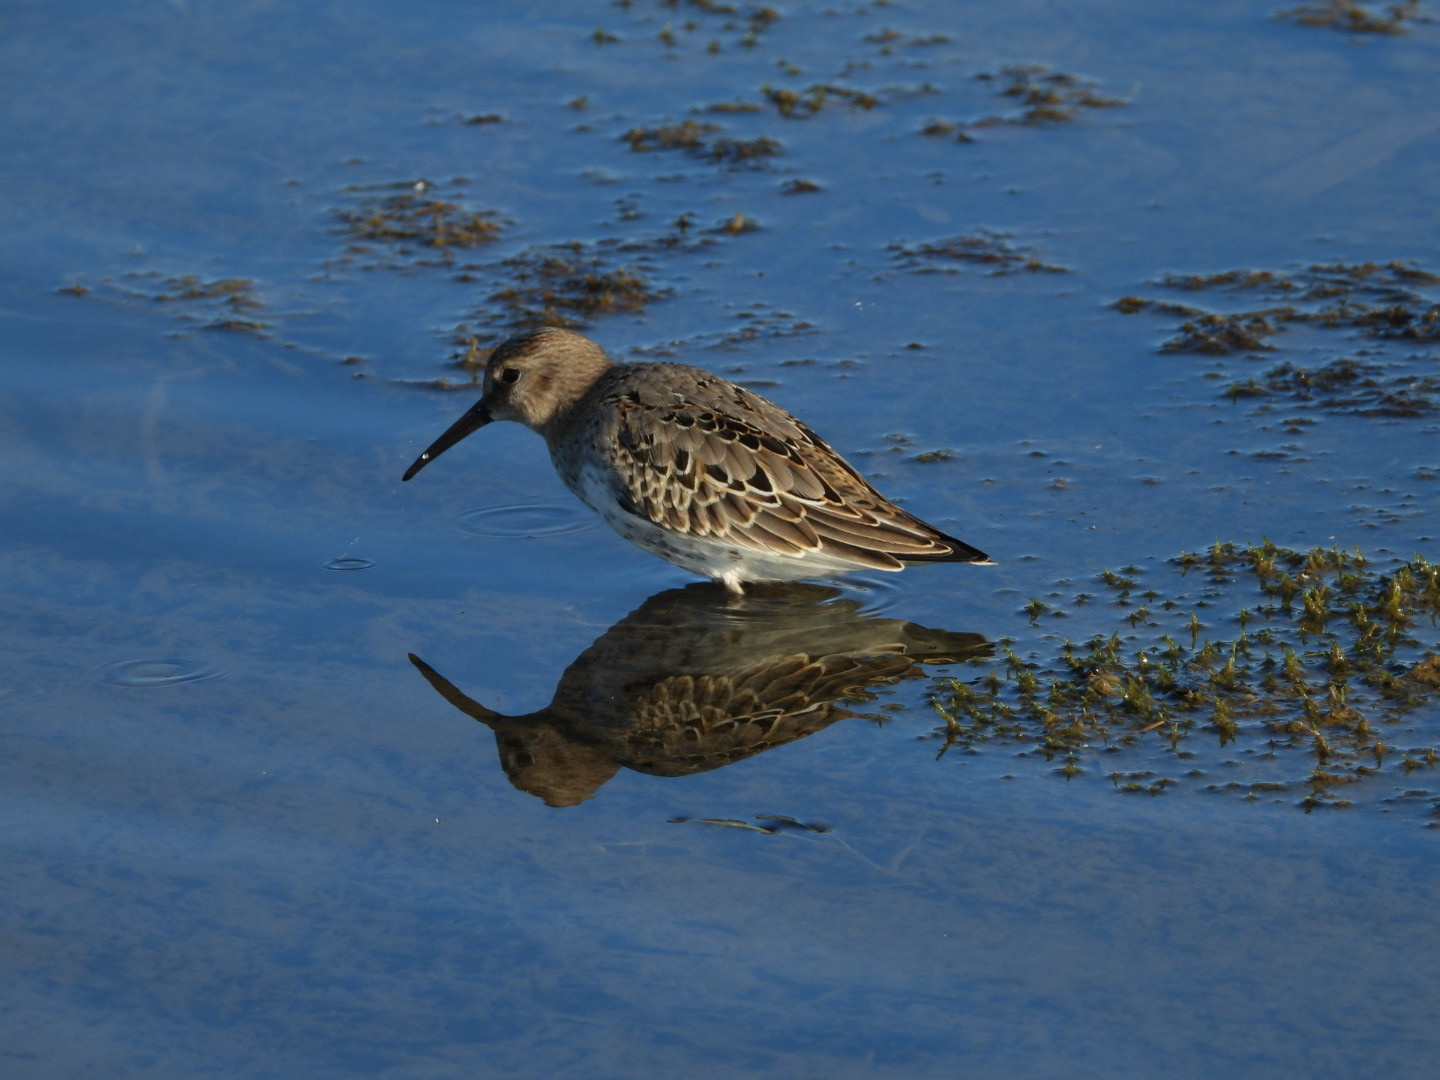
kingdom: Animalia
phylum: Chordata
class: Aves
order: Charadriiformes
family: Scolopacidae
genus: Calidris
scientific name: Calidris alpina
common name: Dunlin
